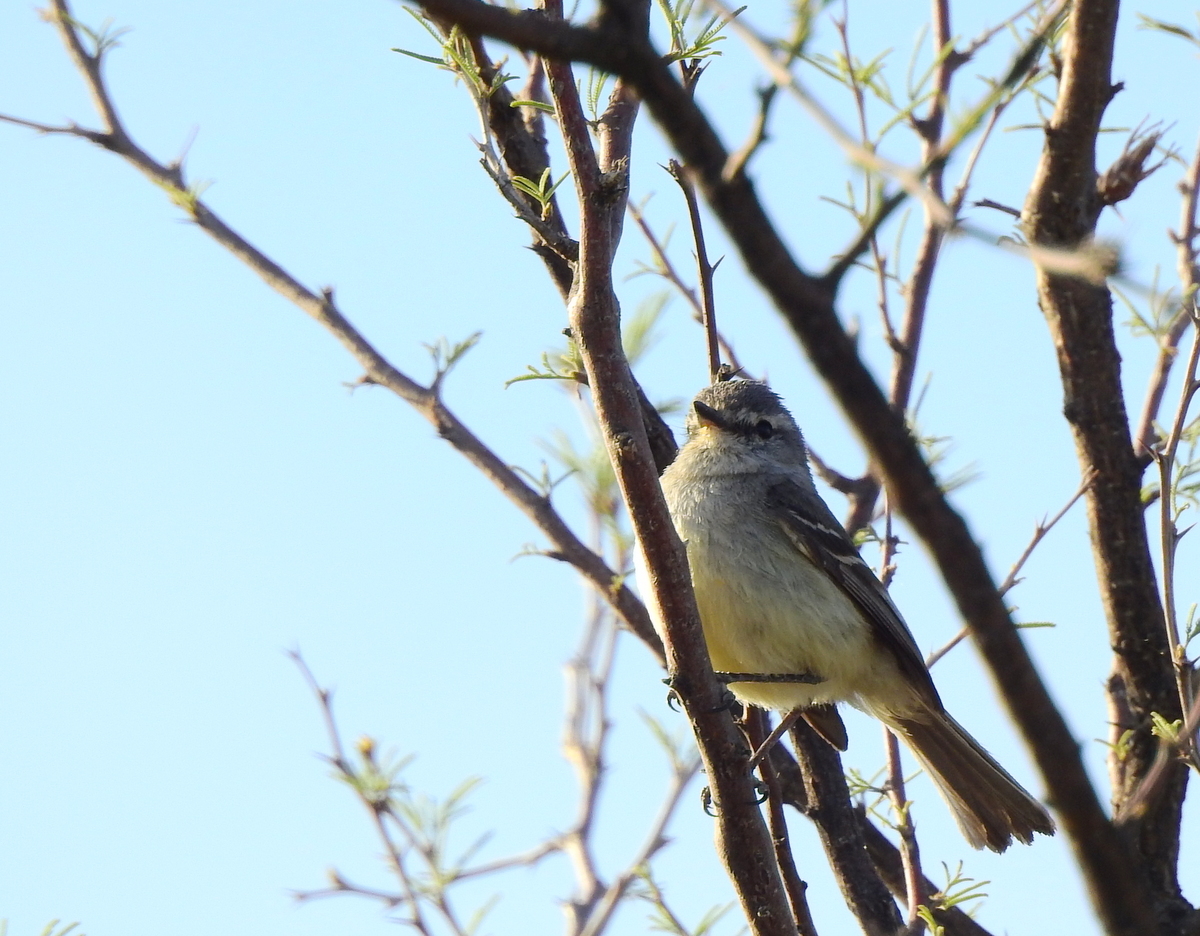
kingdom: Animalia
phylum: Chordata
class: Aves
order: Passeriformes
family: Tyrannidae
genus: Serpophaga
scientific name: Serpophaga
